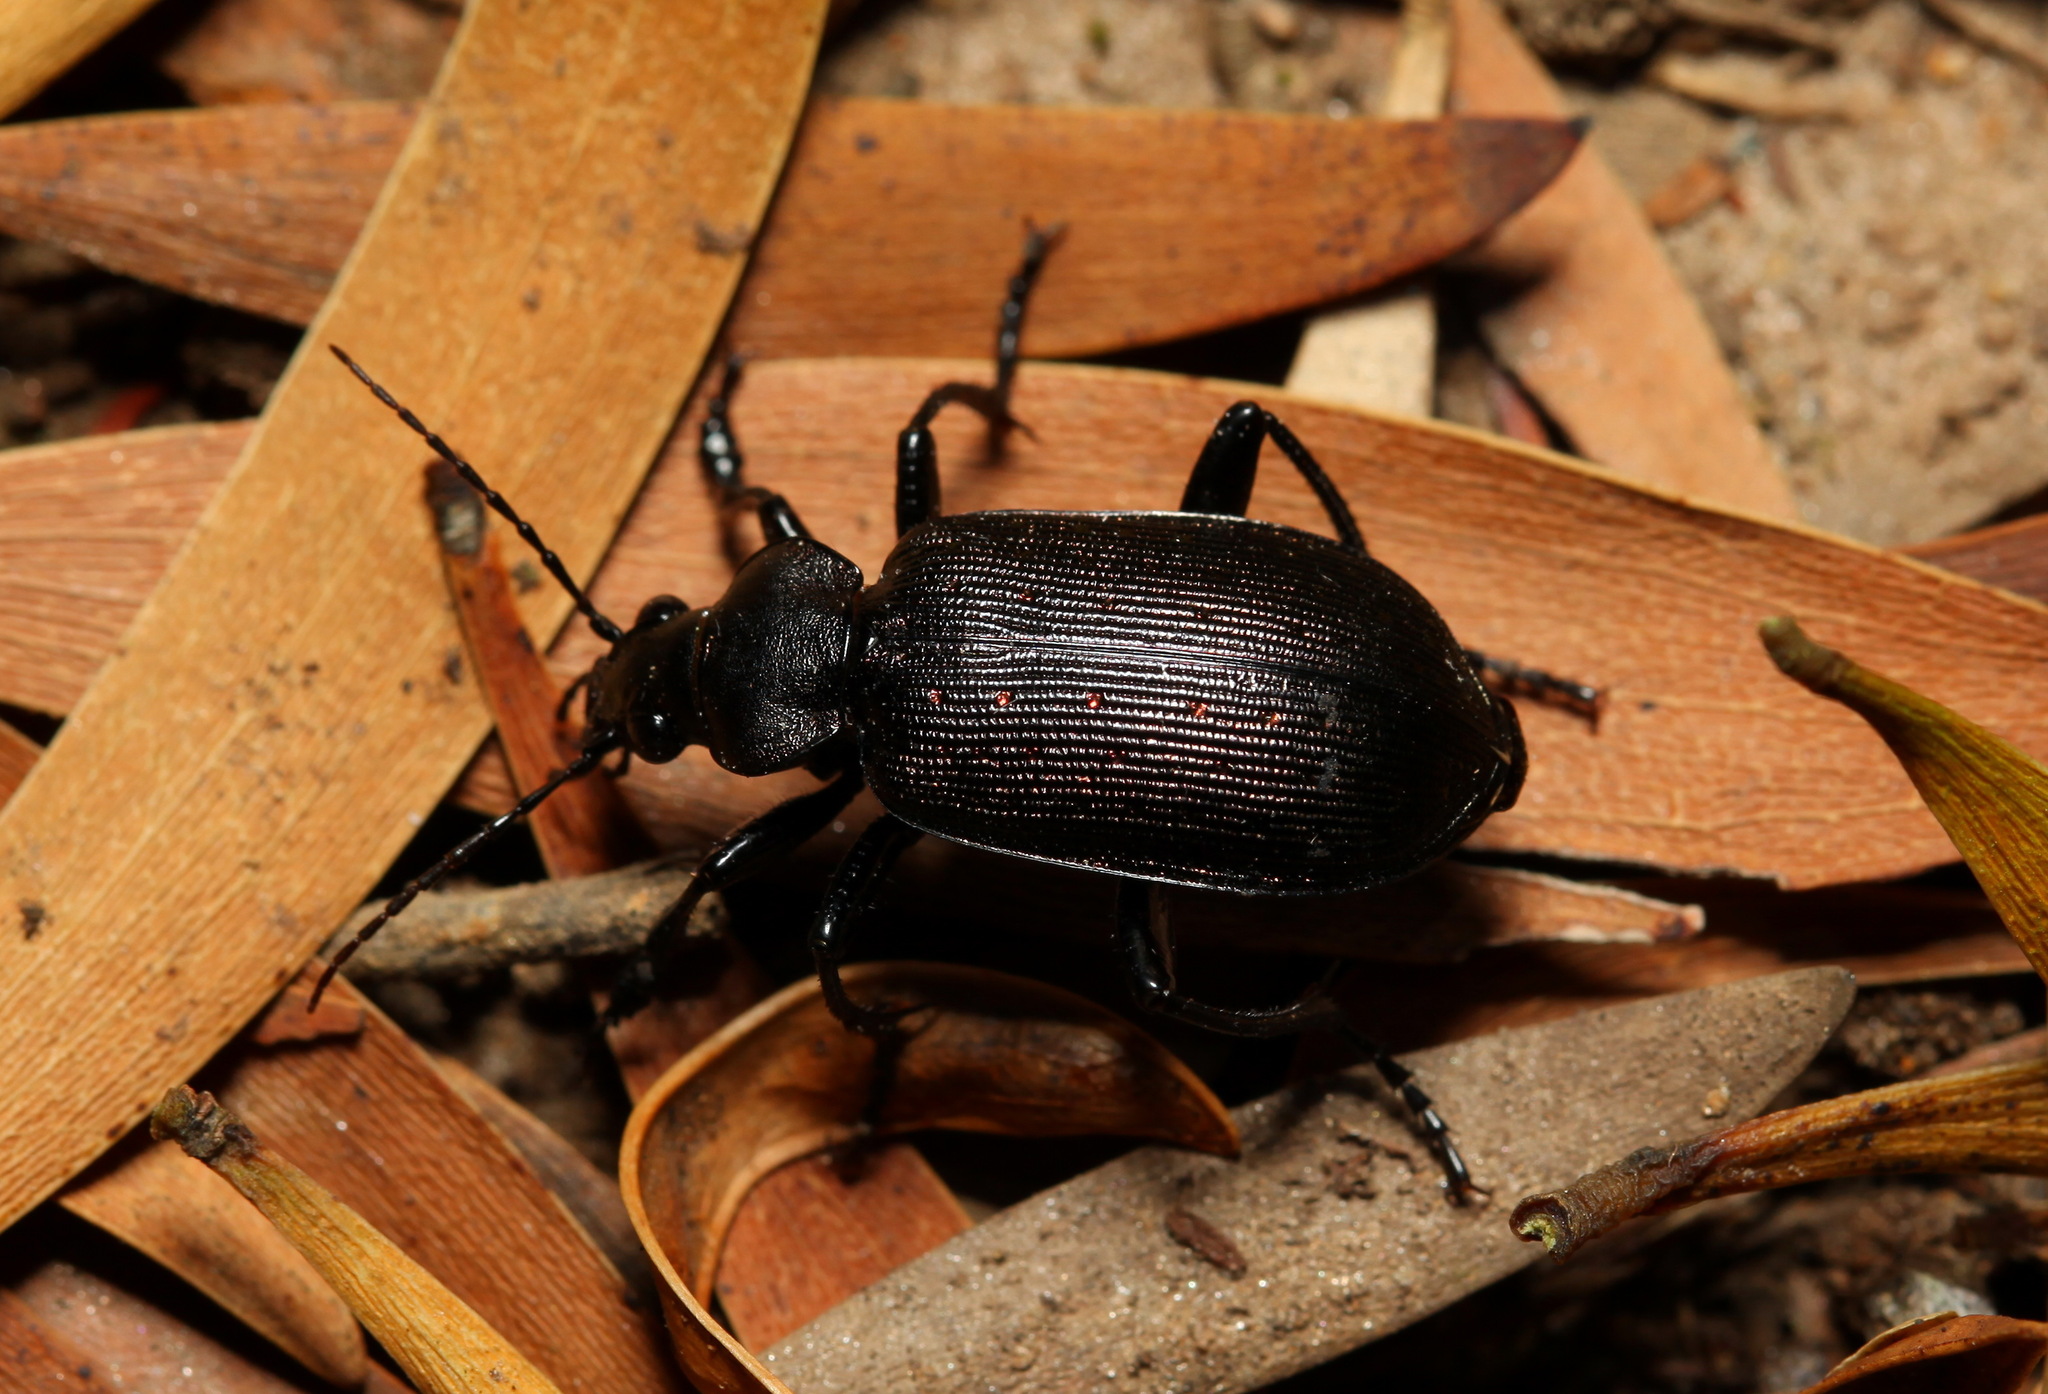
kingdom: Animalia
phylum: Arthropoda
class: Insecta
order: Coleoptera
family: Carabidae
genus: Calosoma
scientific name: Calosoma chlorostictum
